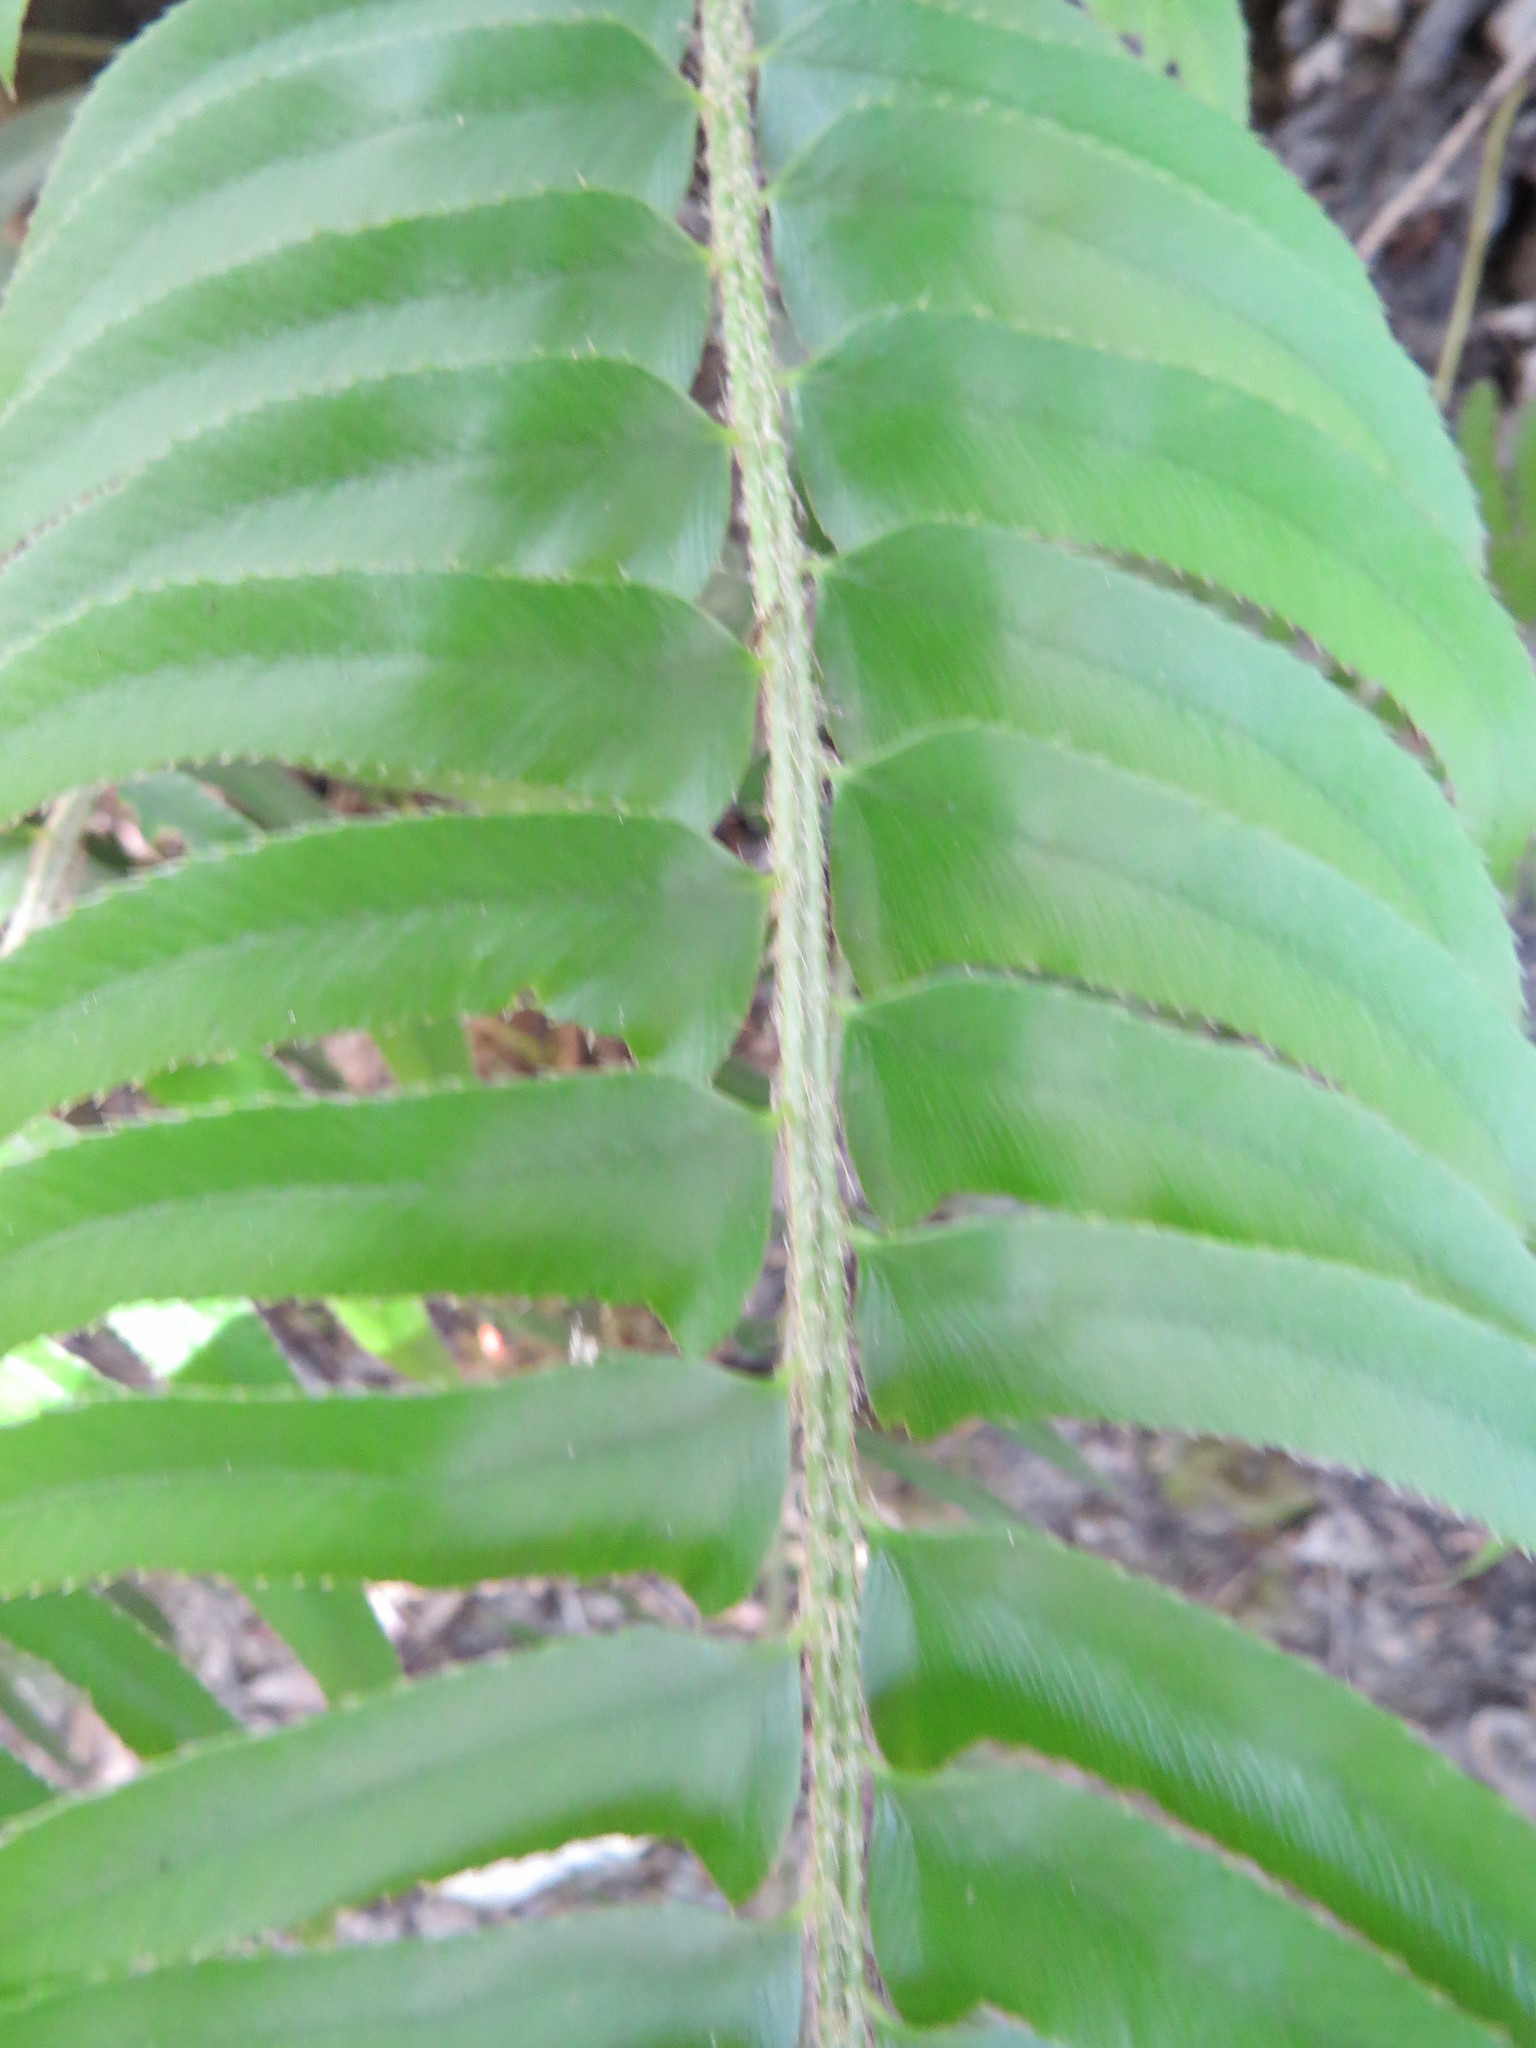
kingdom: Plantae
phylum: Tracheophyta
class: Polypodiopsida
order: Polypodiales
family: Dryopteridaceae
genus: Polystichum
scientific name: Polystichum munitum
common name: Western sword-fern
